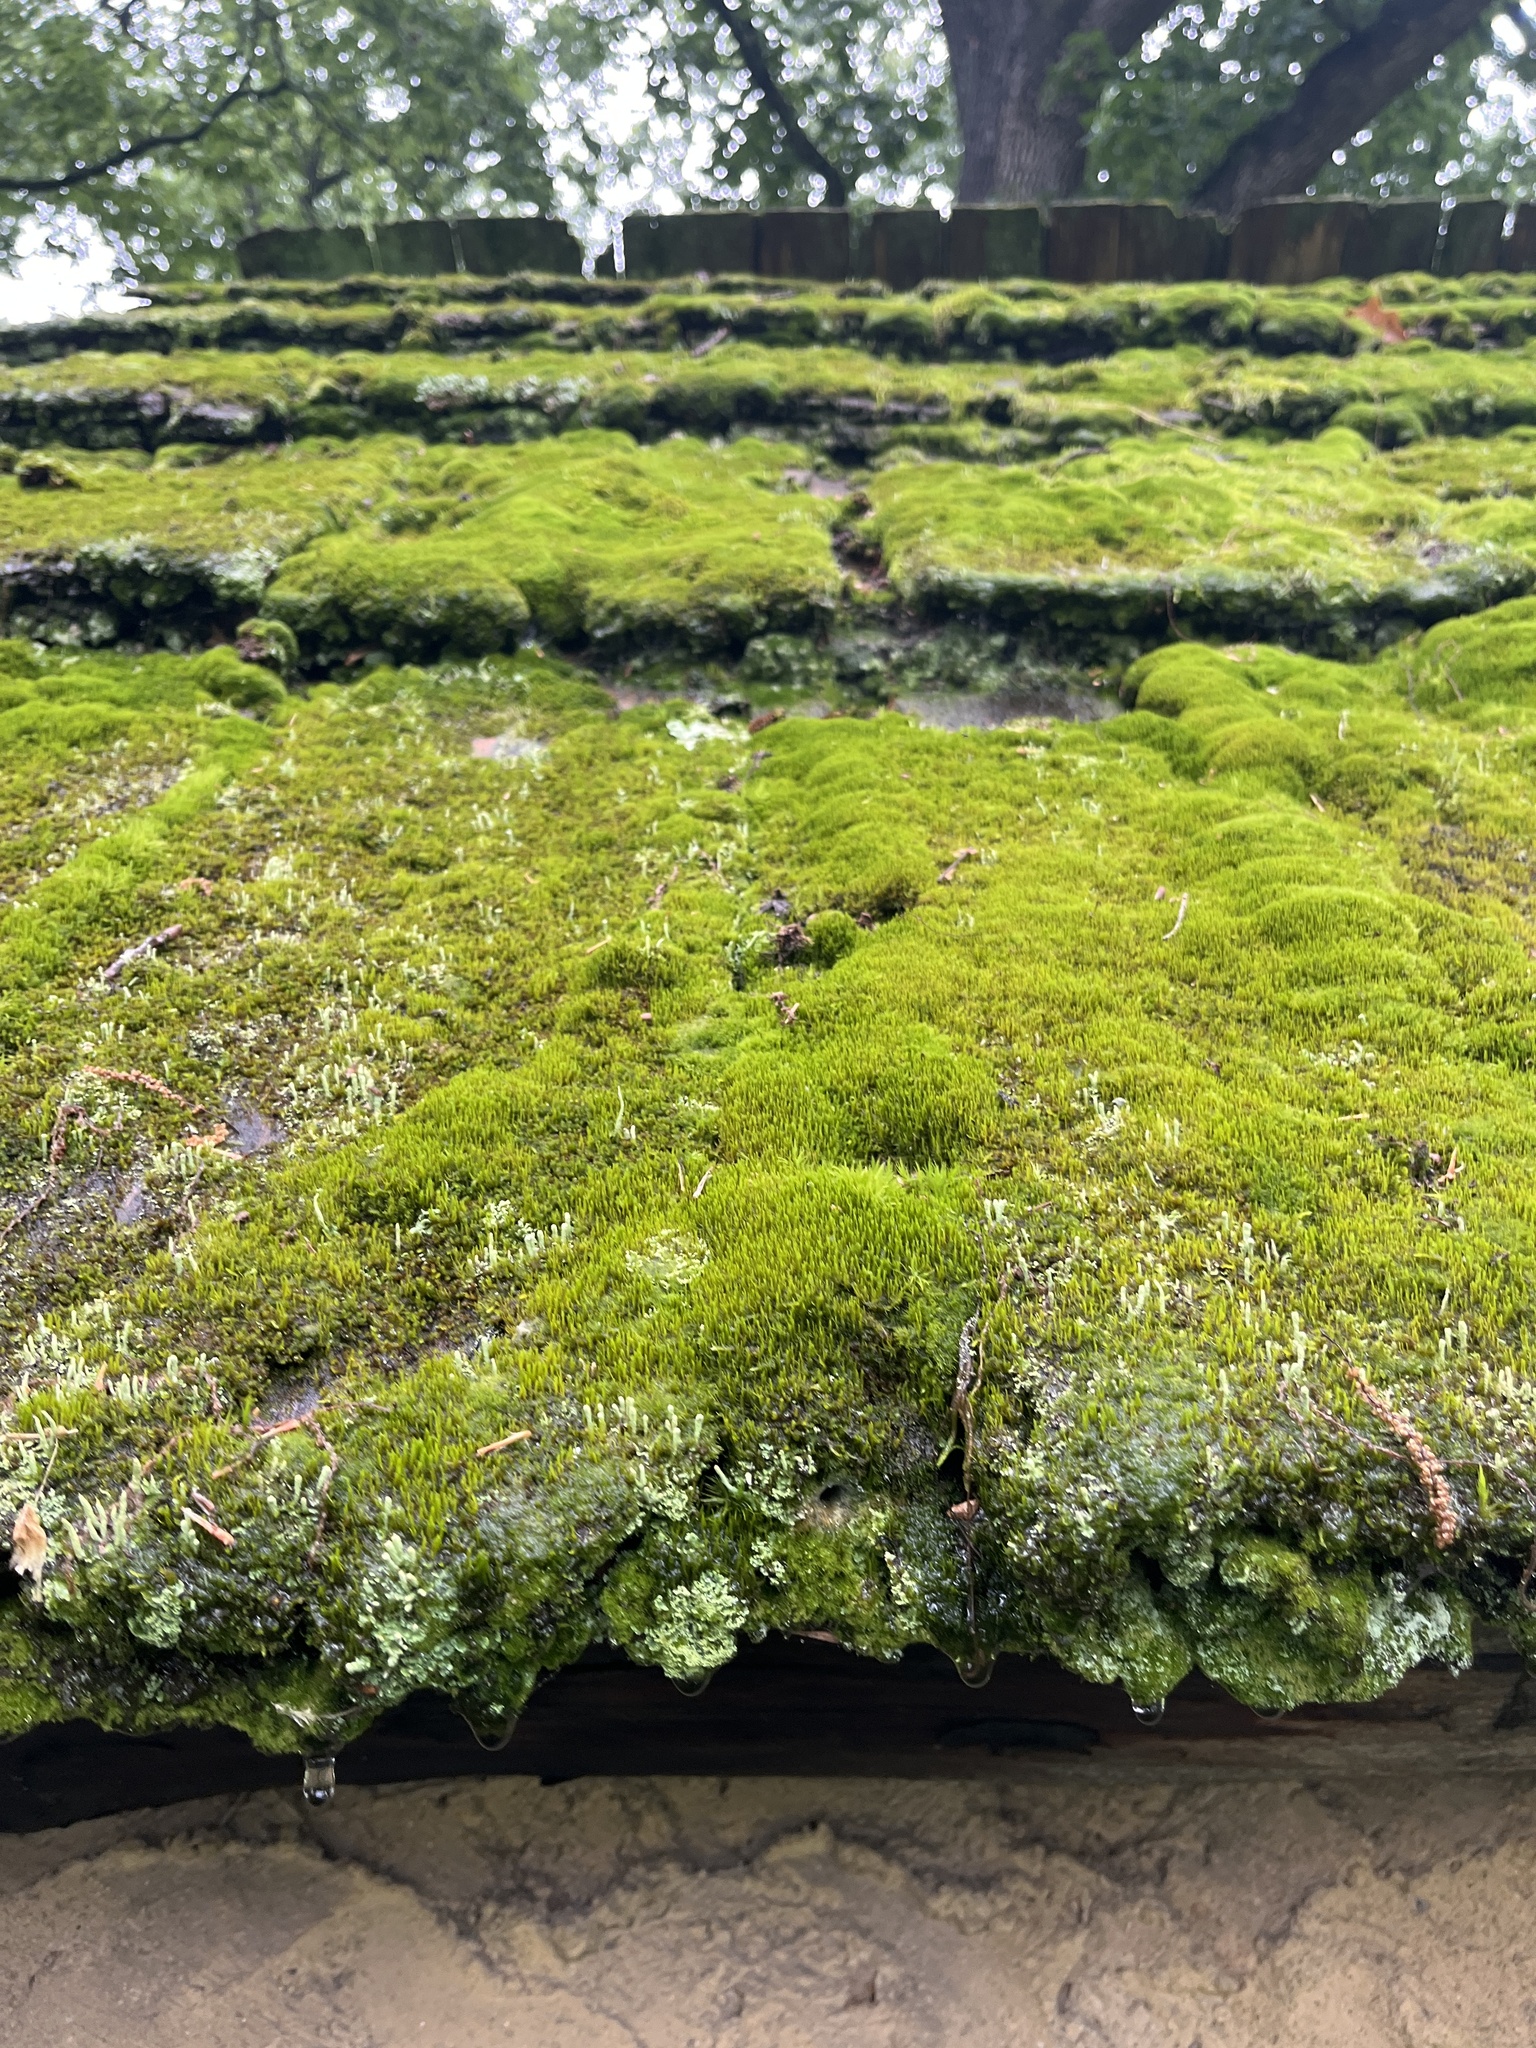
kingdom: Plantae
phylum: Bryophyta
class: Bryopsida
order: Bryales
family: Bryaceae
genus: Bryum
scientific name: Bryum argenteum
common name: Silver-moss
